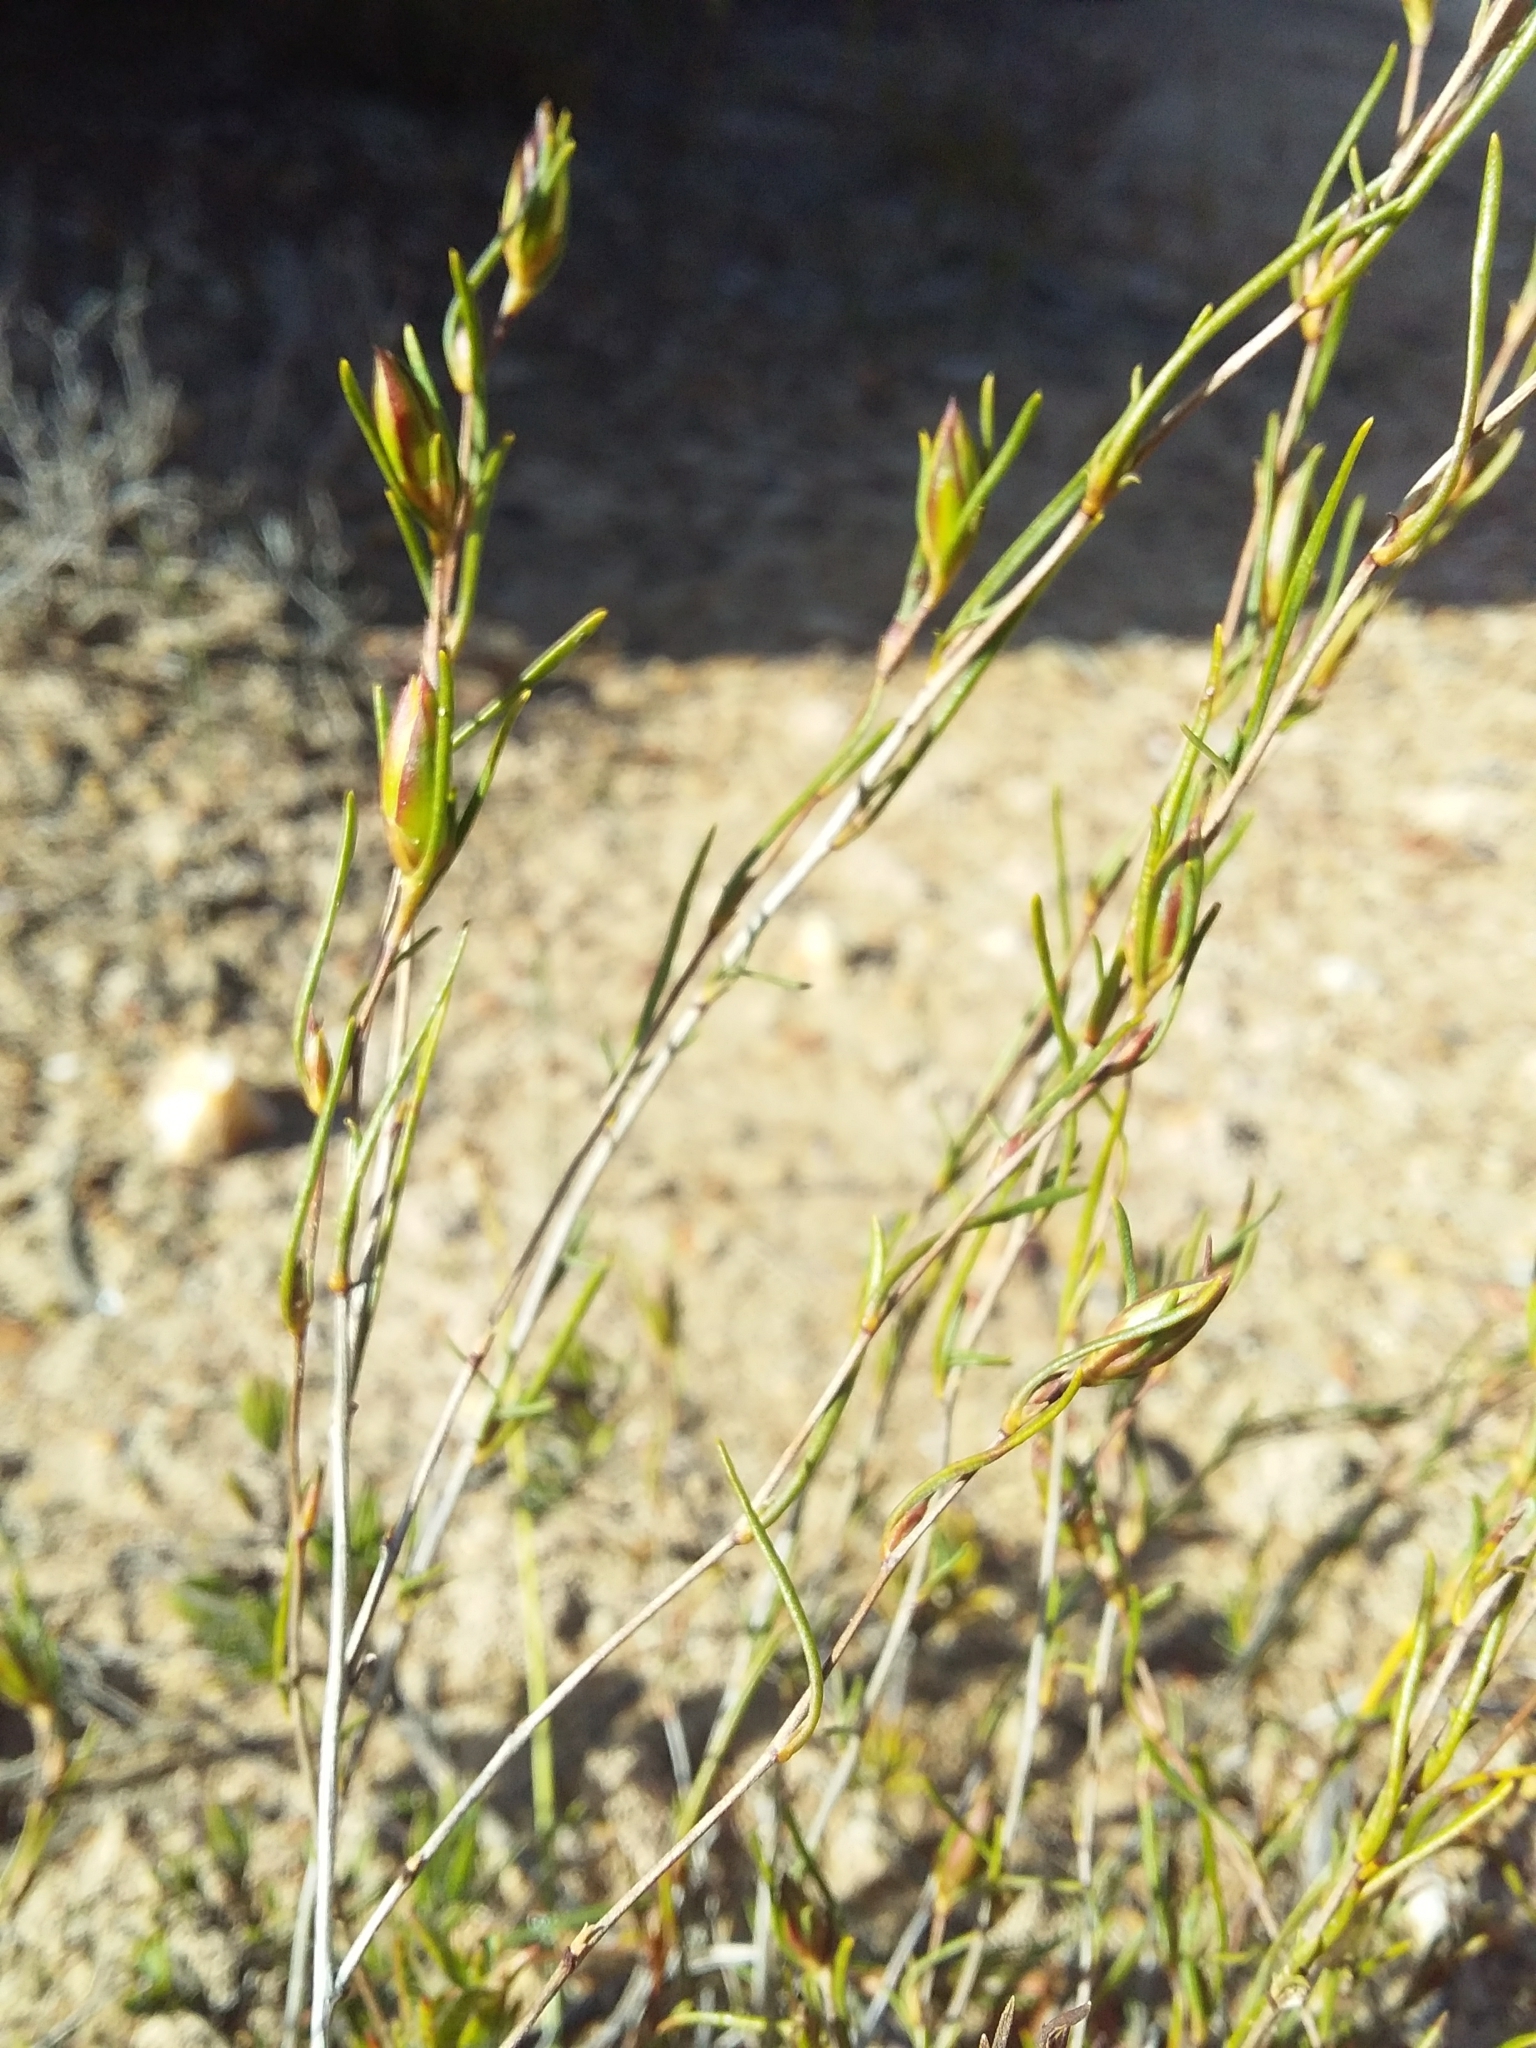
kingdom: Plantae
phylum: Tracheophyta
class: Magnoliopsida
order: Dilleniales
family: Dilleniaceae
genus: Hibbertia
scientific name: Hibbertia virgata
